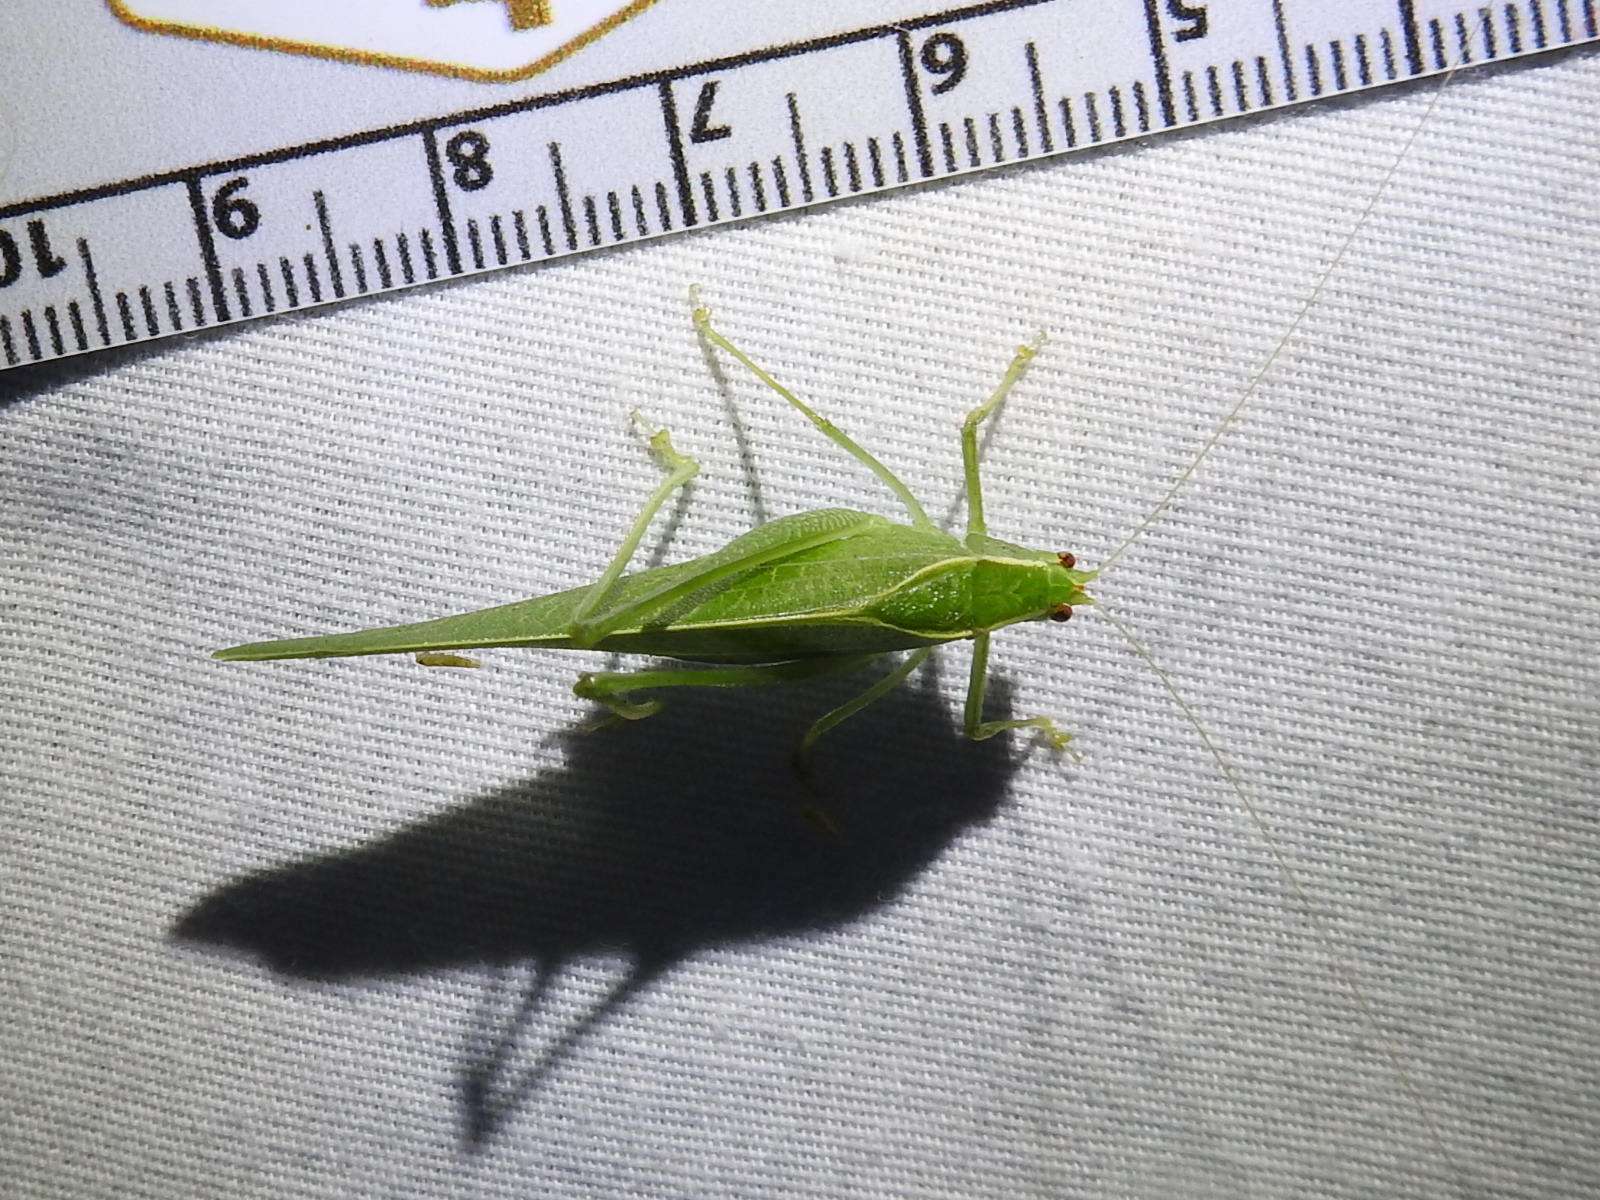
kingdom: Animalia
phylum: Arthropoda
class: Insecta
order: Orthoptera
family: Tettigoniidae
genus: Montezumina
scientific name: Montezumina modesta
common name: Modest katydid
